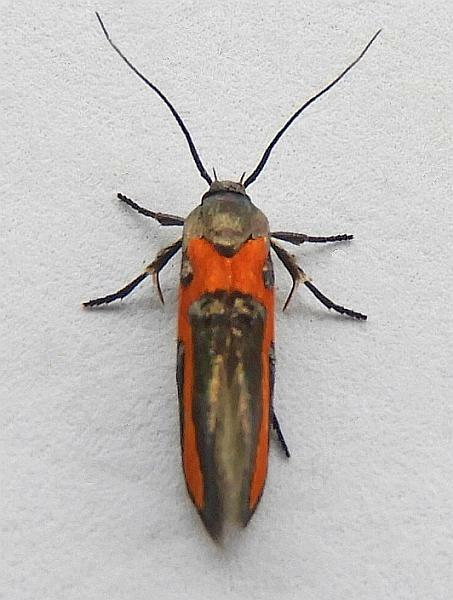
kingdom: Animalia
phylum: Arthropoda
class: Insecta
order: Lepidoptera
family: Cosmopterigidae
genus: Euclemensia
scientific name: Euclemensia bassettella
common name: Kermes scale moth
